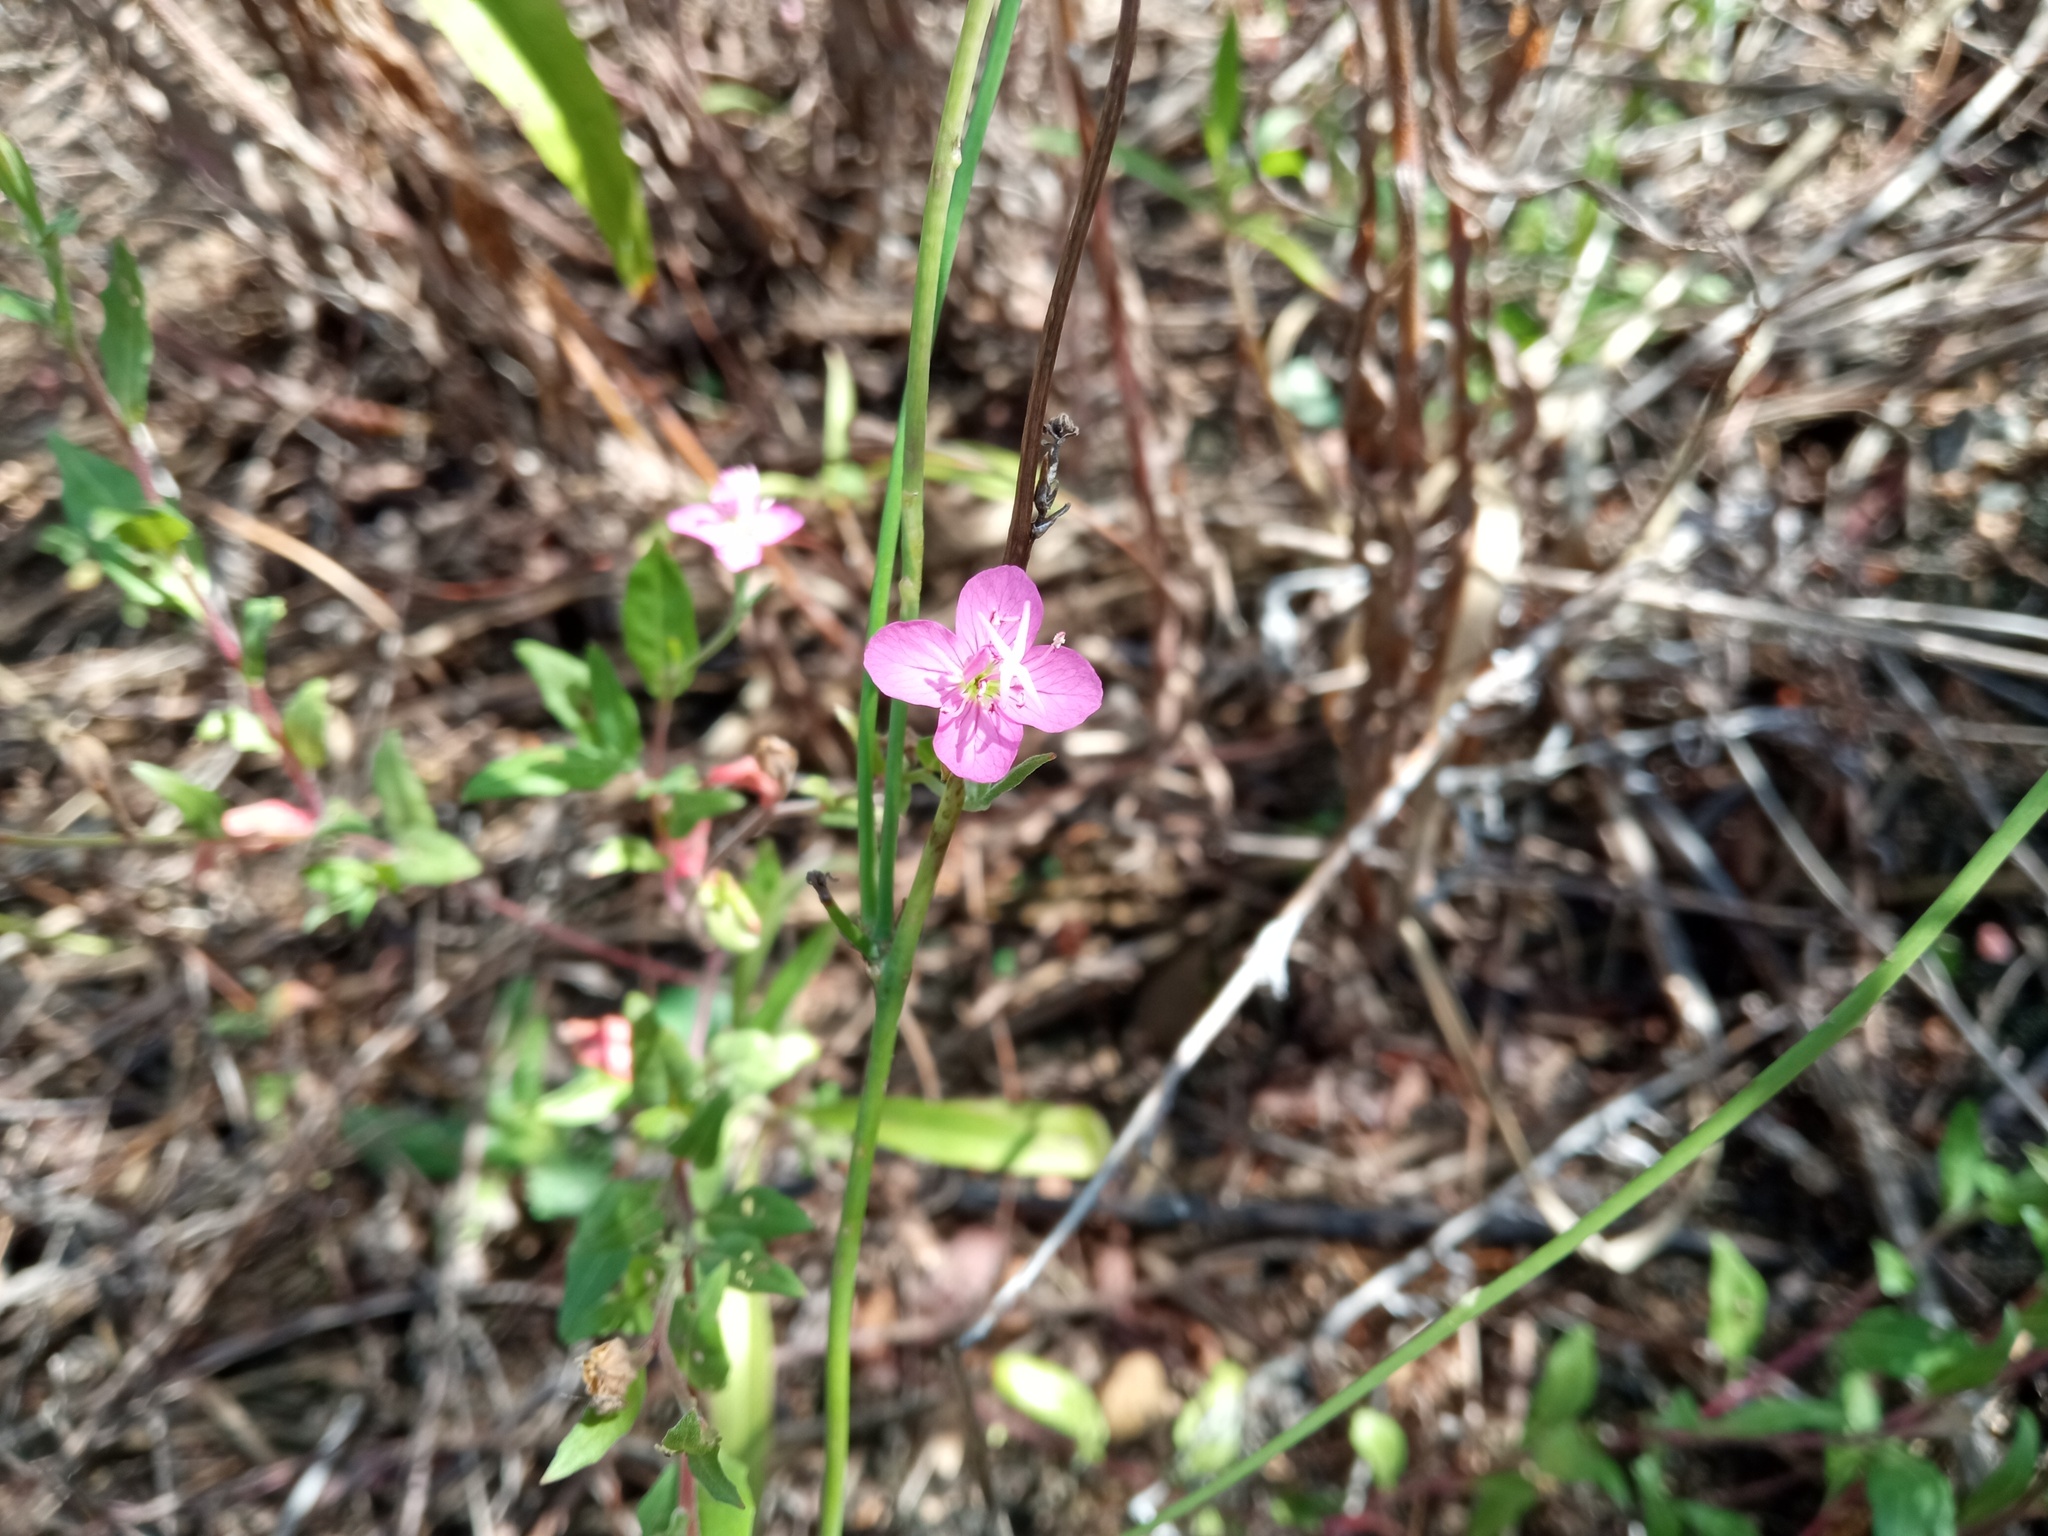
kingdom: Plantae
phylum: Tracheophyta
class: Magnoliopsida
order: Myrtales
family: Onagraceae
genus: Oenothera
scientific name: Oenothera rosea
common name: Rosy evening-primrose
